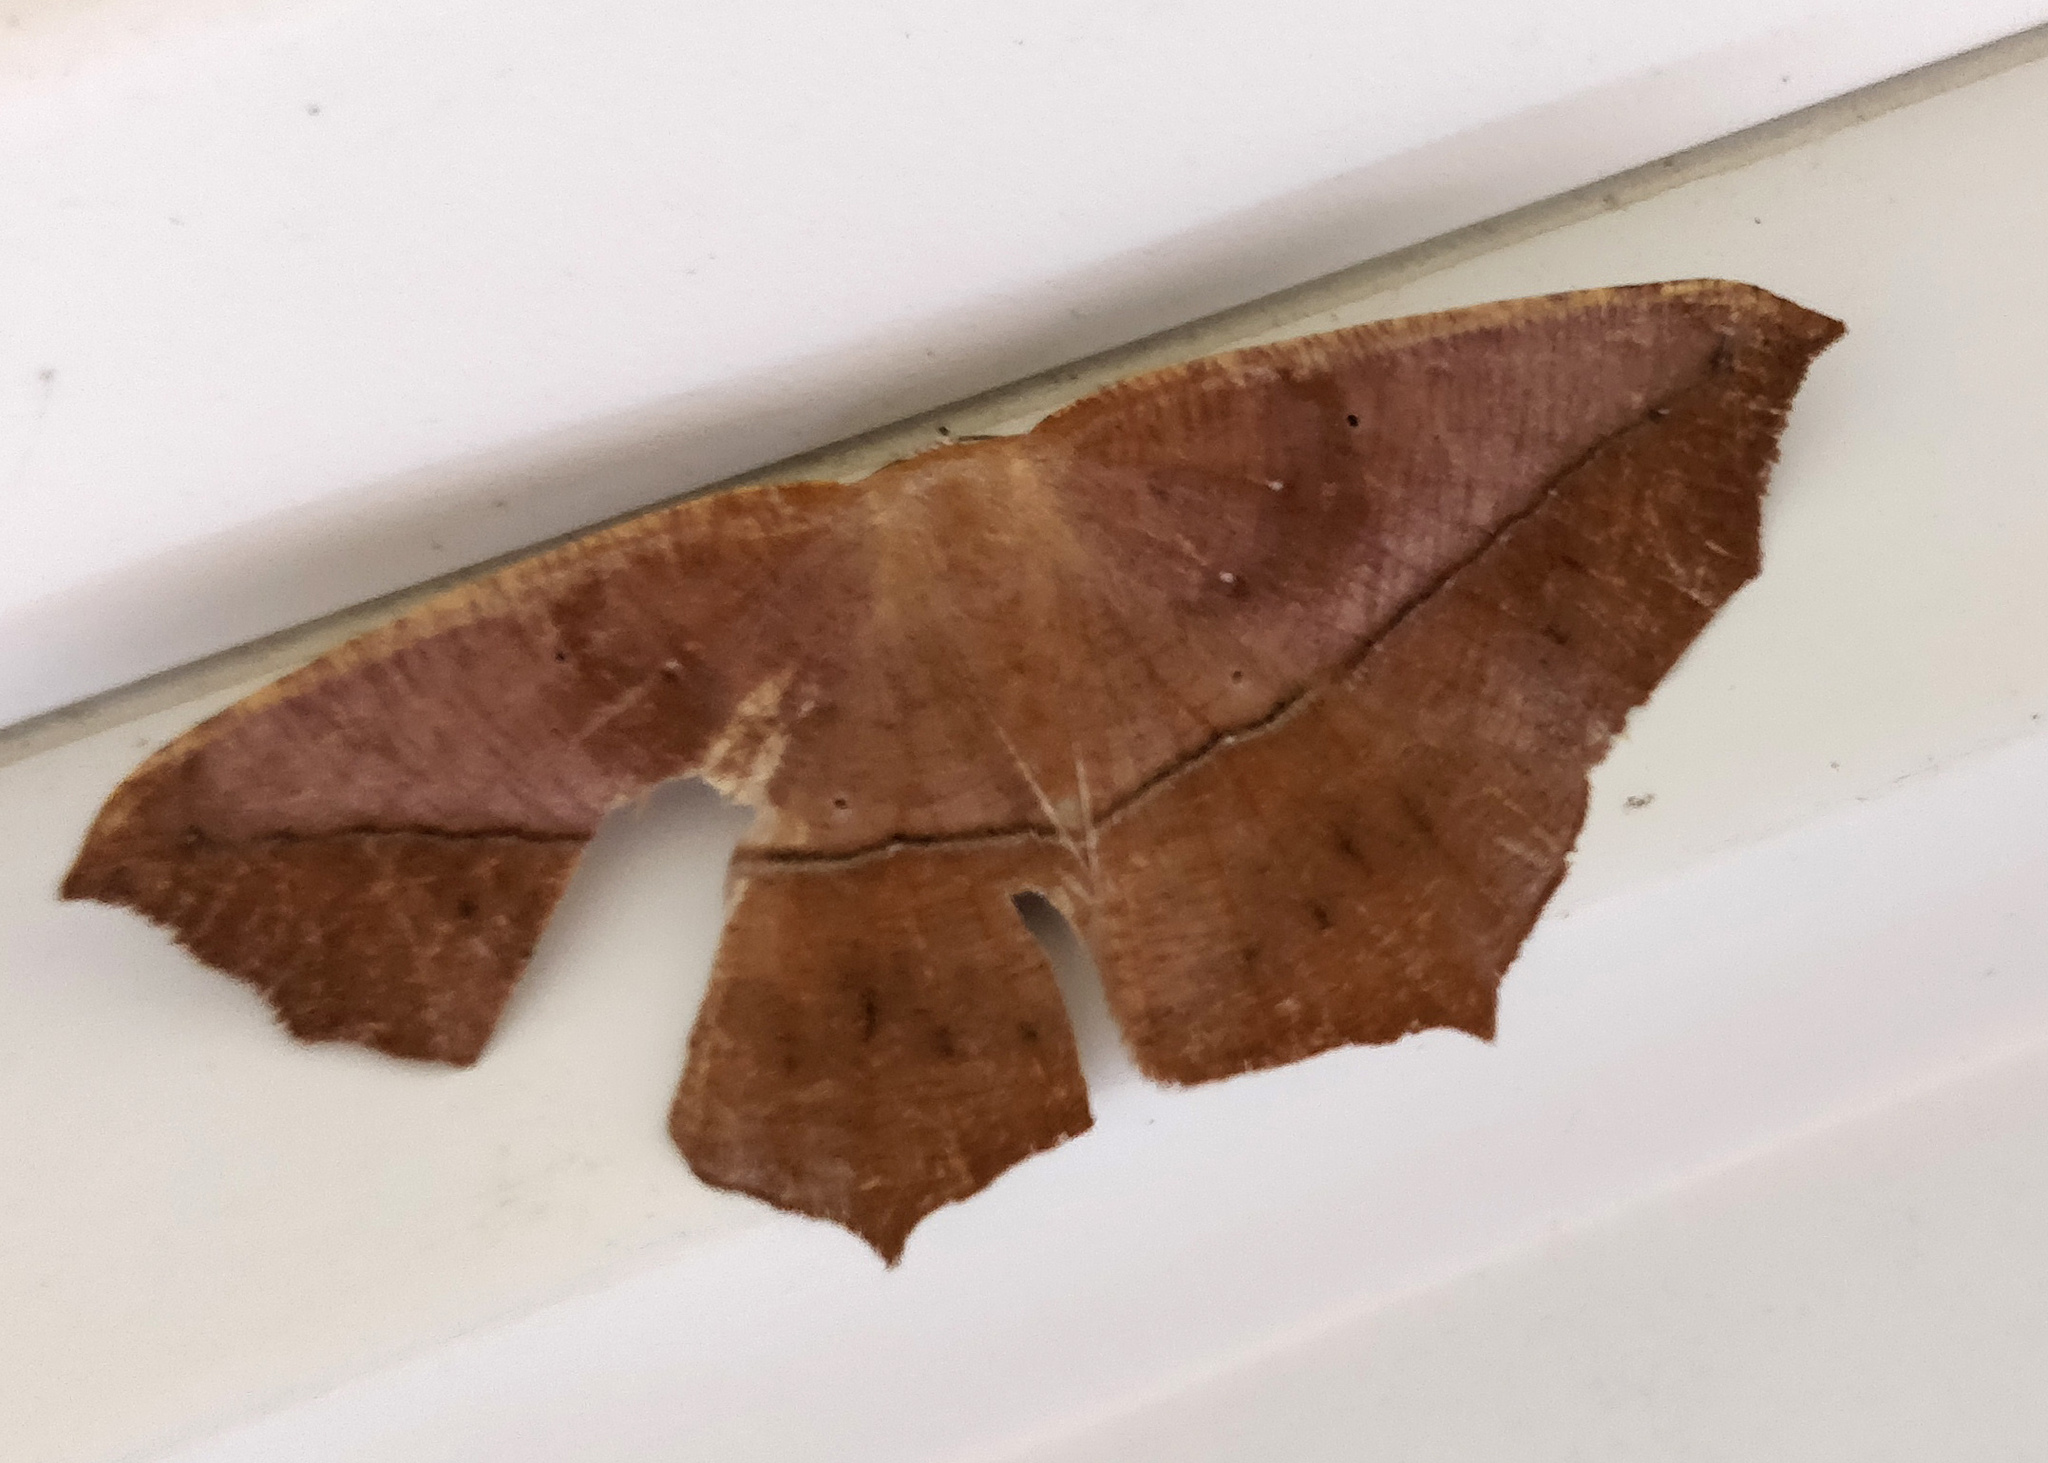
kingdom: Animalia
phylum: Arthropoda
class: Insecta
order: Lepidoptera
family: Geometridae
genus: Prochoerodes
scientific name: Prochoerodes lineola
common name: Large maple spanworm
